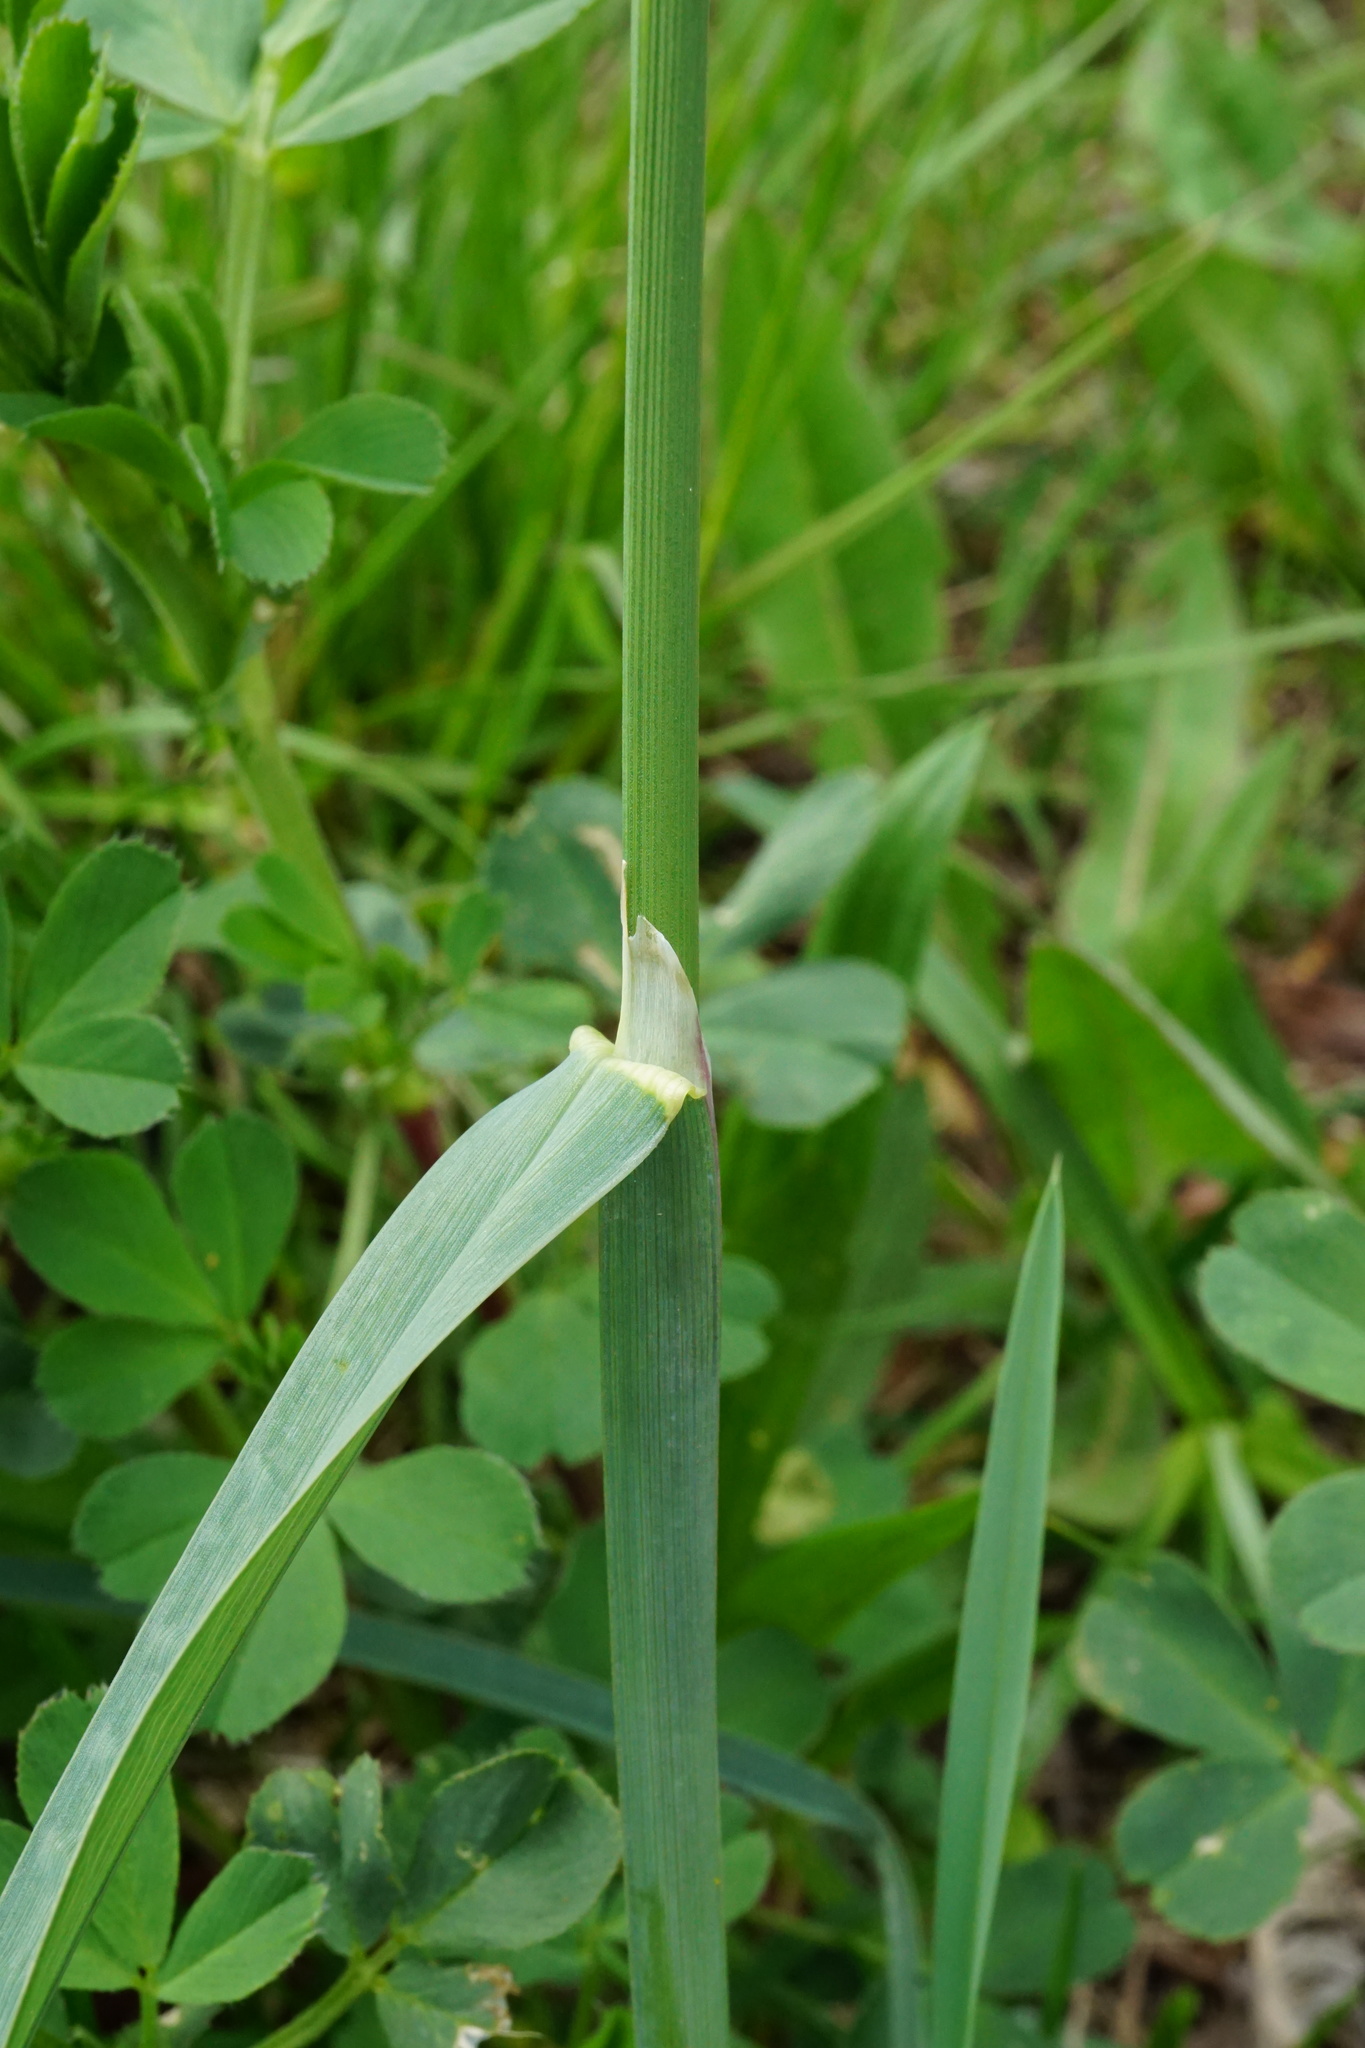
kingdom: Plantae
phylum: Tracheophyta
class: Liliopsida
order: Poales
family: Poaceae
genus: Dactylis
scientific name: Dactylis glomerata
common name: Orchardgrass
